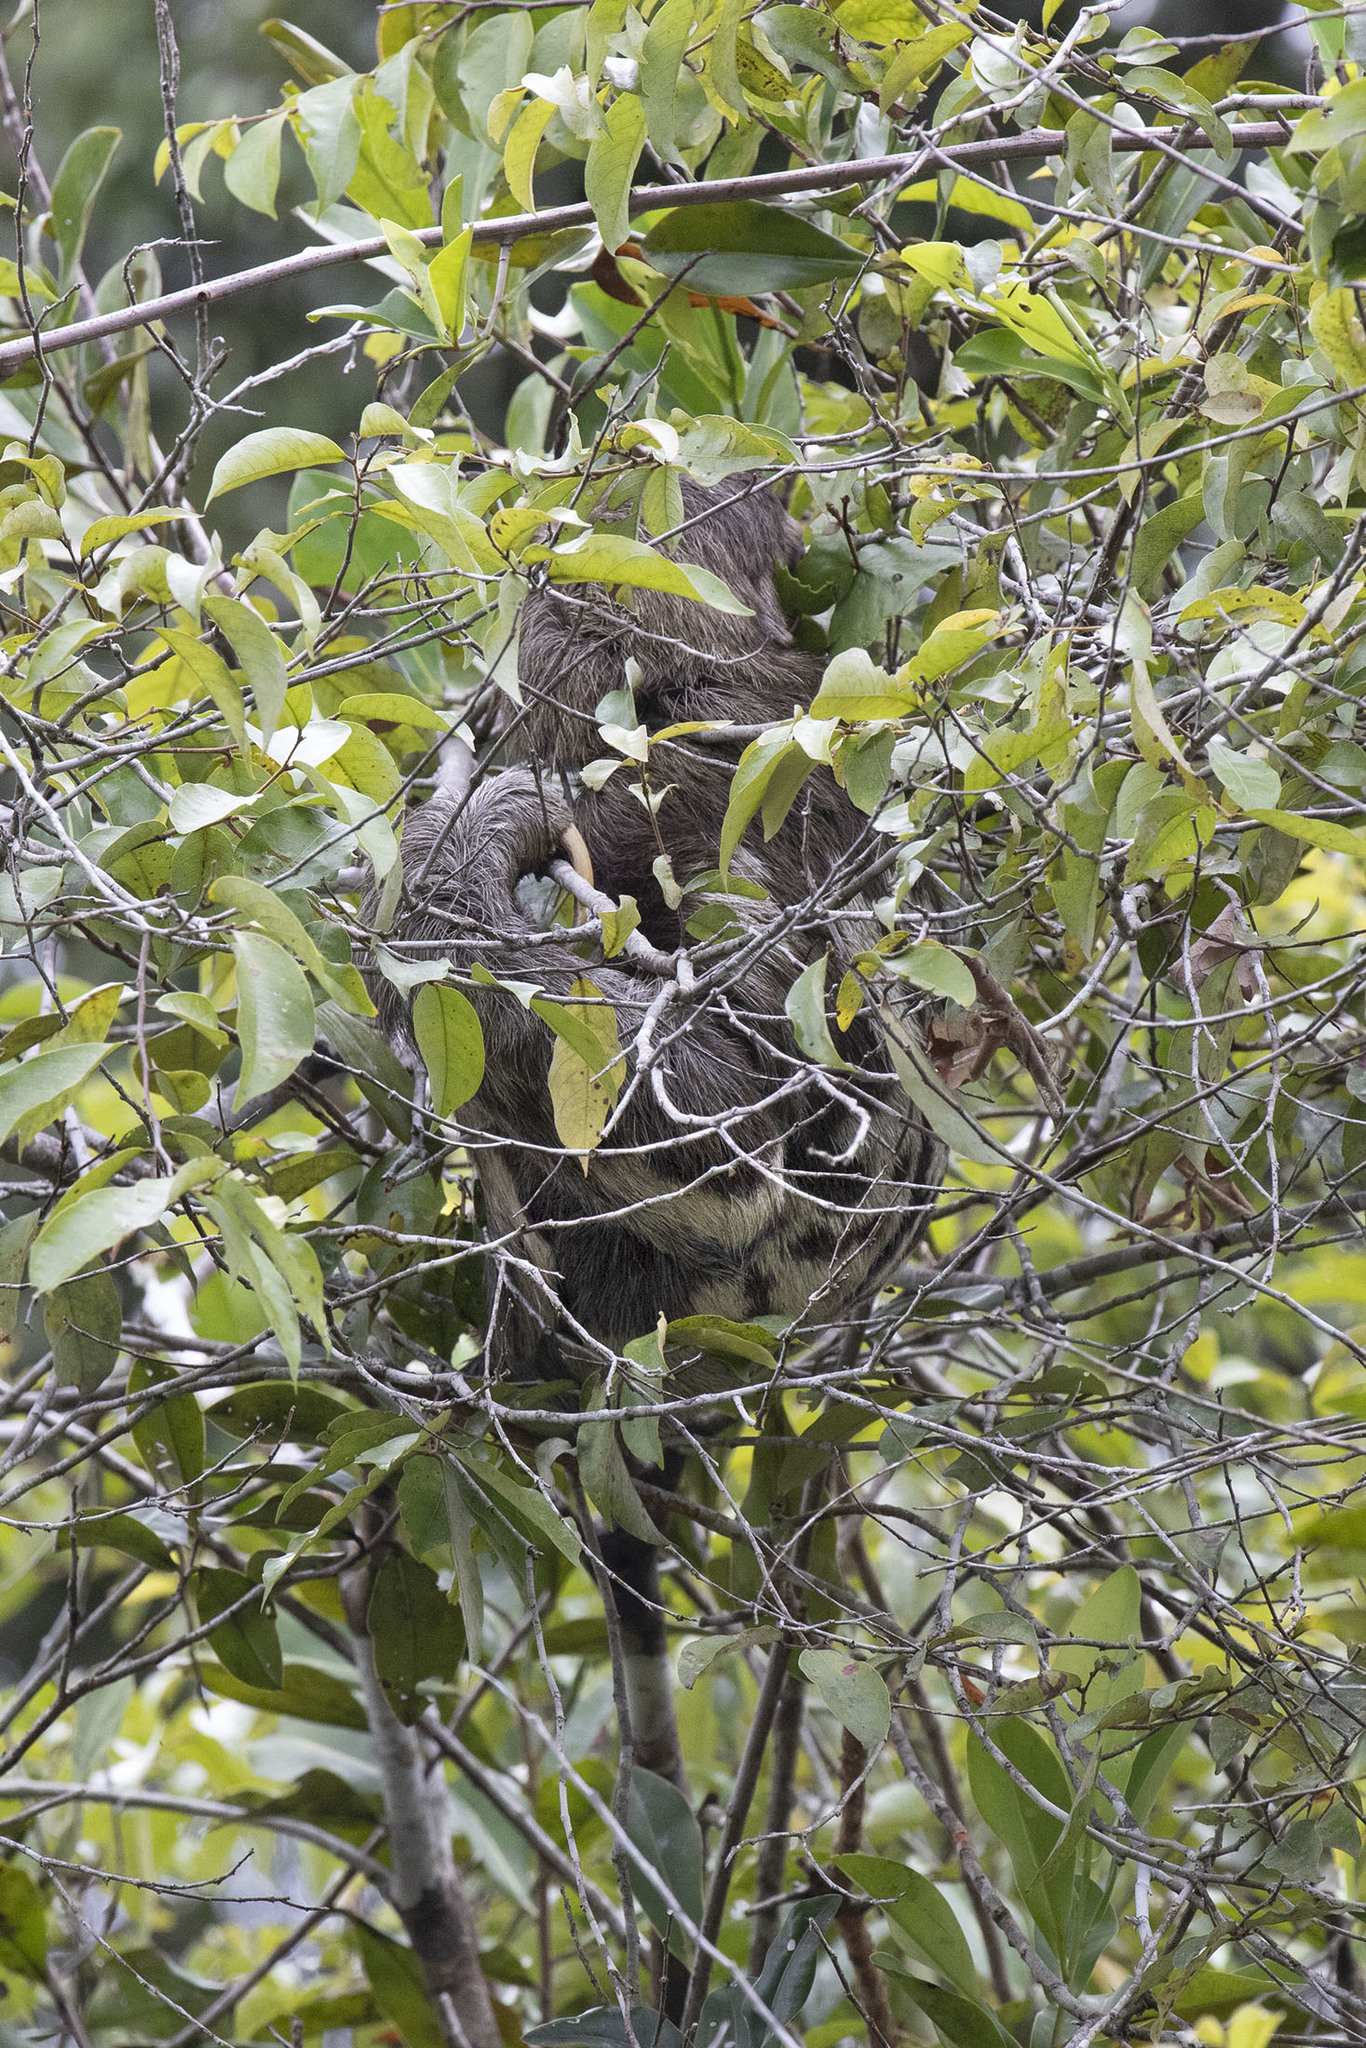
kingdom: Animalia
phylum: Chordata
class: Mammalia
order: Pilosa
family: Bradypodidae
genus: Bradypus
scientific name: Bradypus variegatus
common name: Brown-throated three-toed sloth
